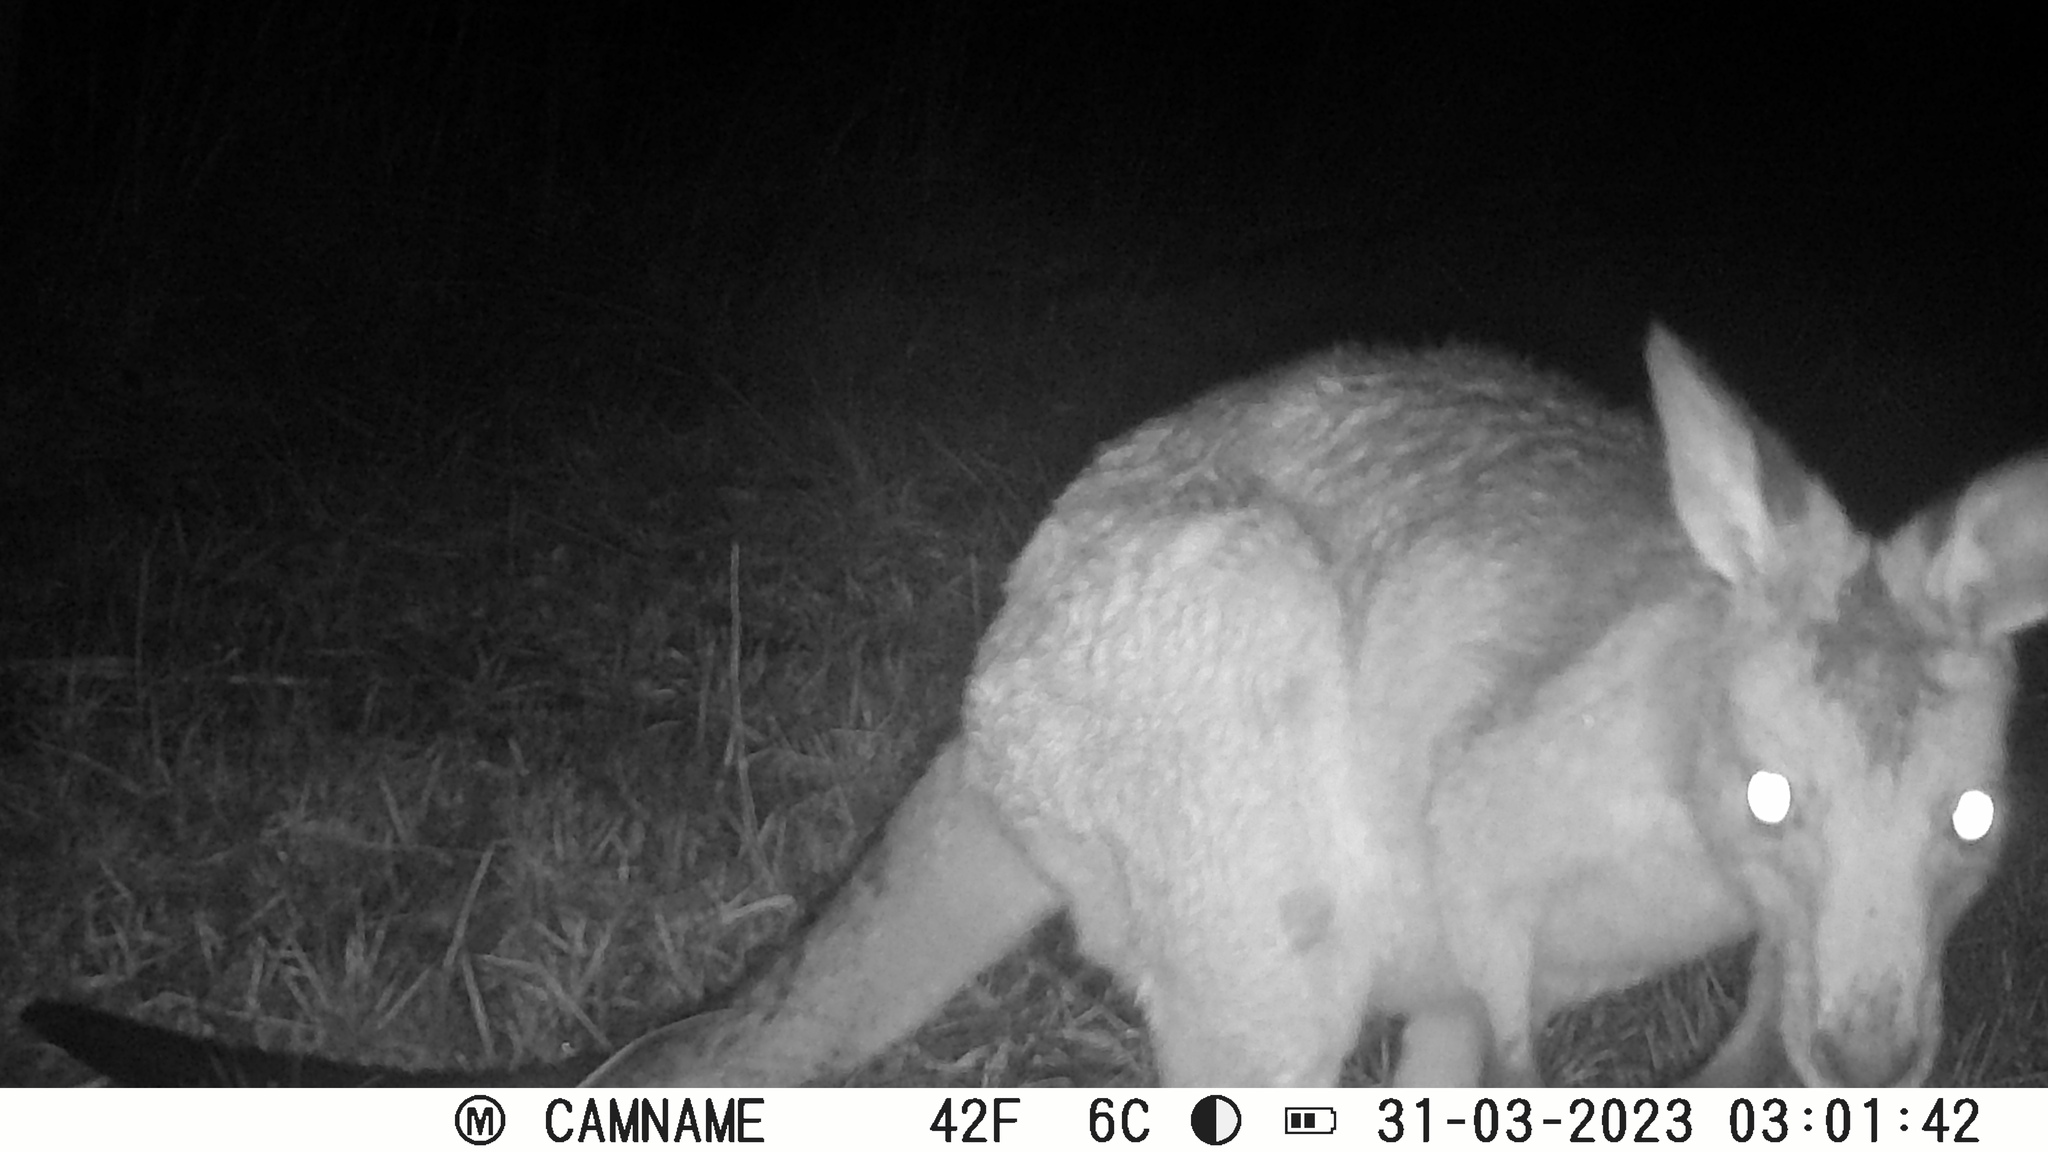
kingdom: Animalia
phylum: Chordata
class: Mammalia
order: Diprotodontia
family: Macropodidae
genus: Macropus
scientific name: Macropus giganteus
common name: Eastern grey kangaroo
